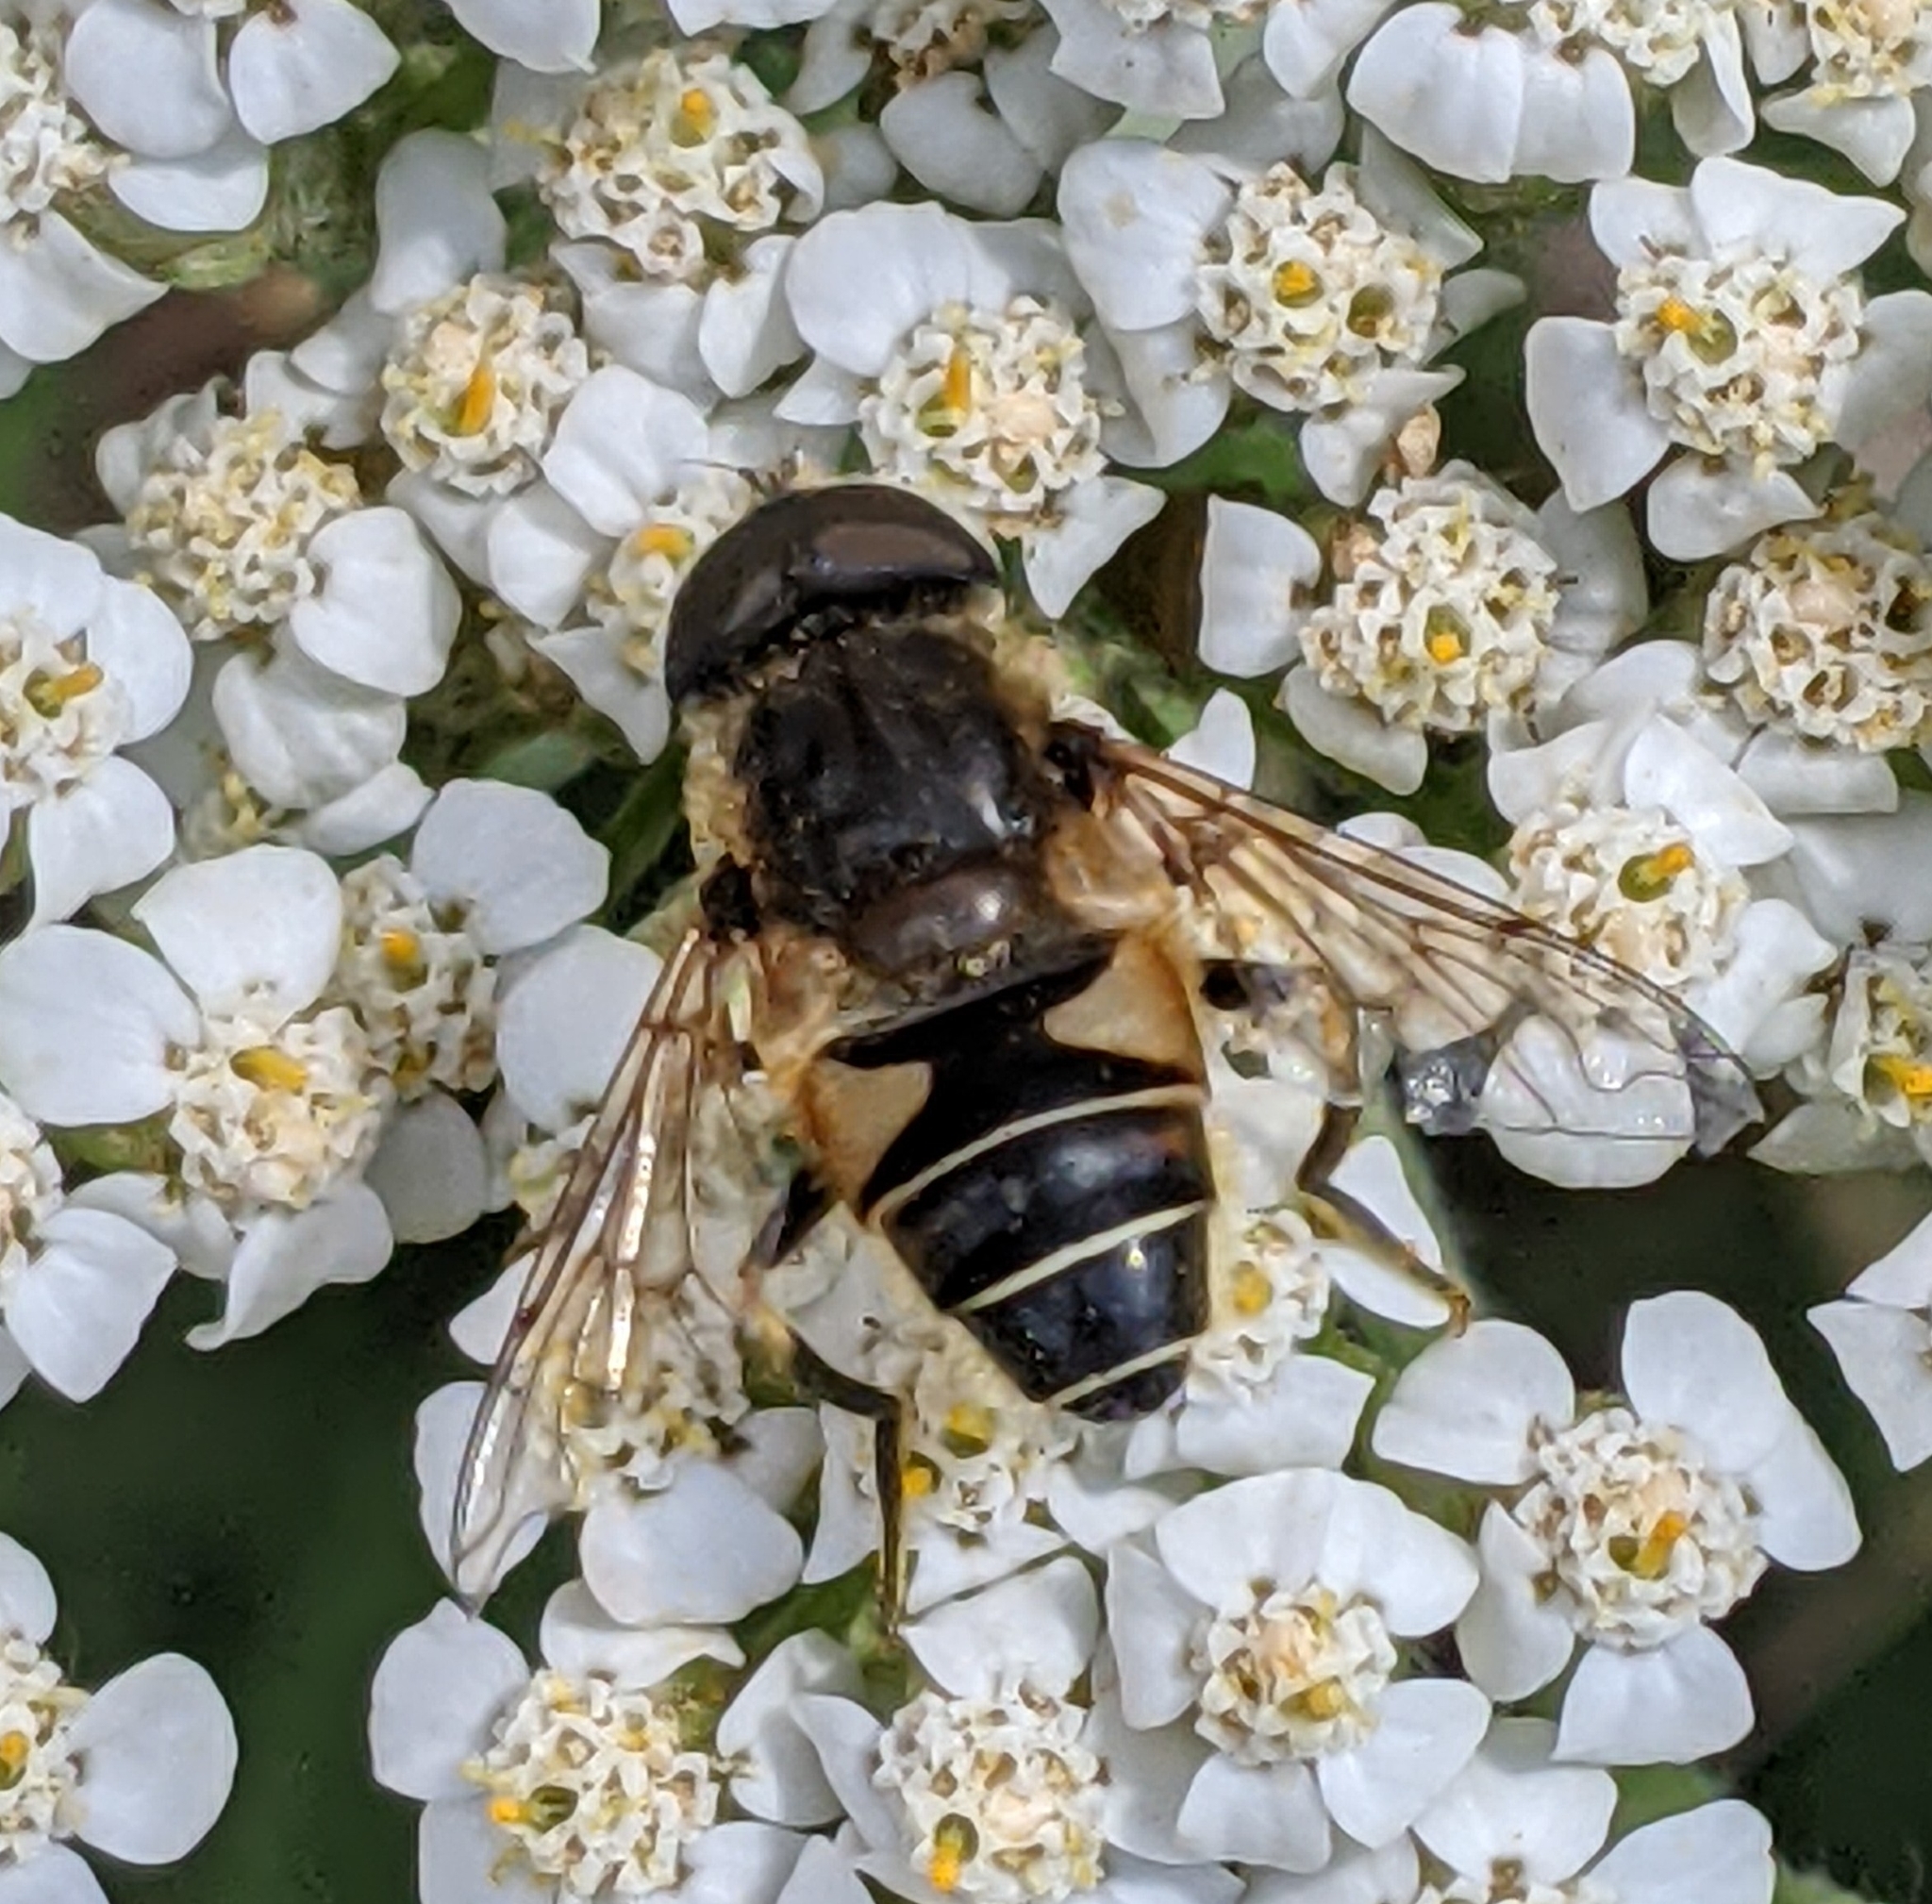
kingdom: Animalia
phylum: Arthropoda
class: Insecta
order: Diptera
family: Syrphidae
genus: Eristalis
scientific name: Eristalis nemorum
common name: Orange-spined drone fly
